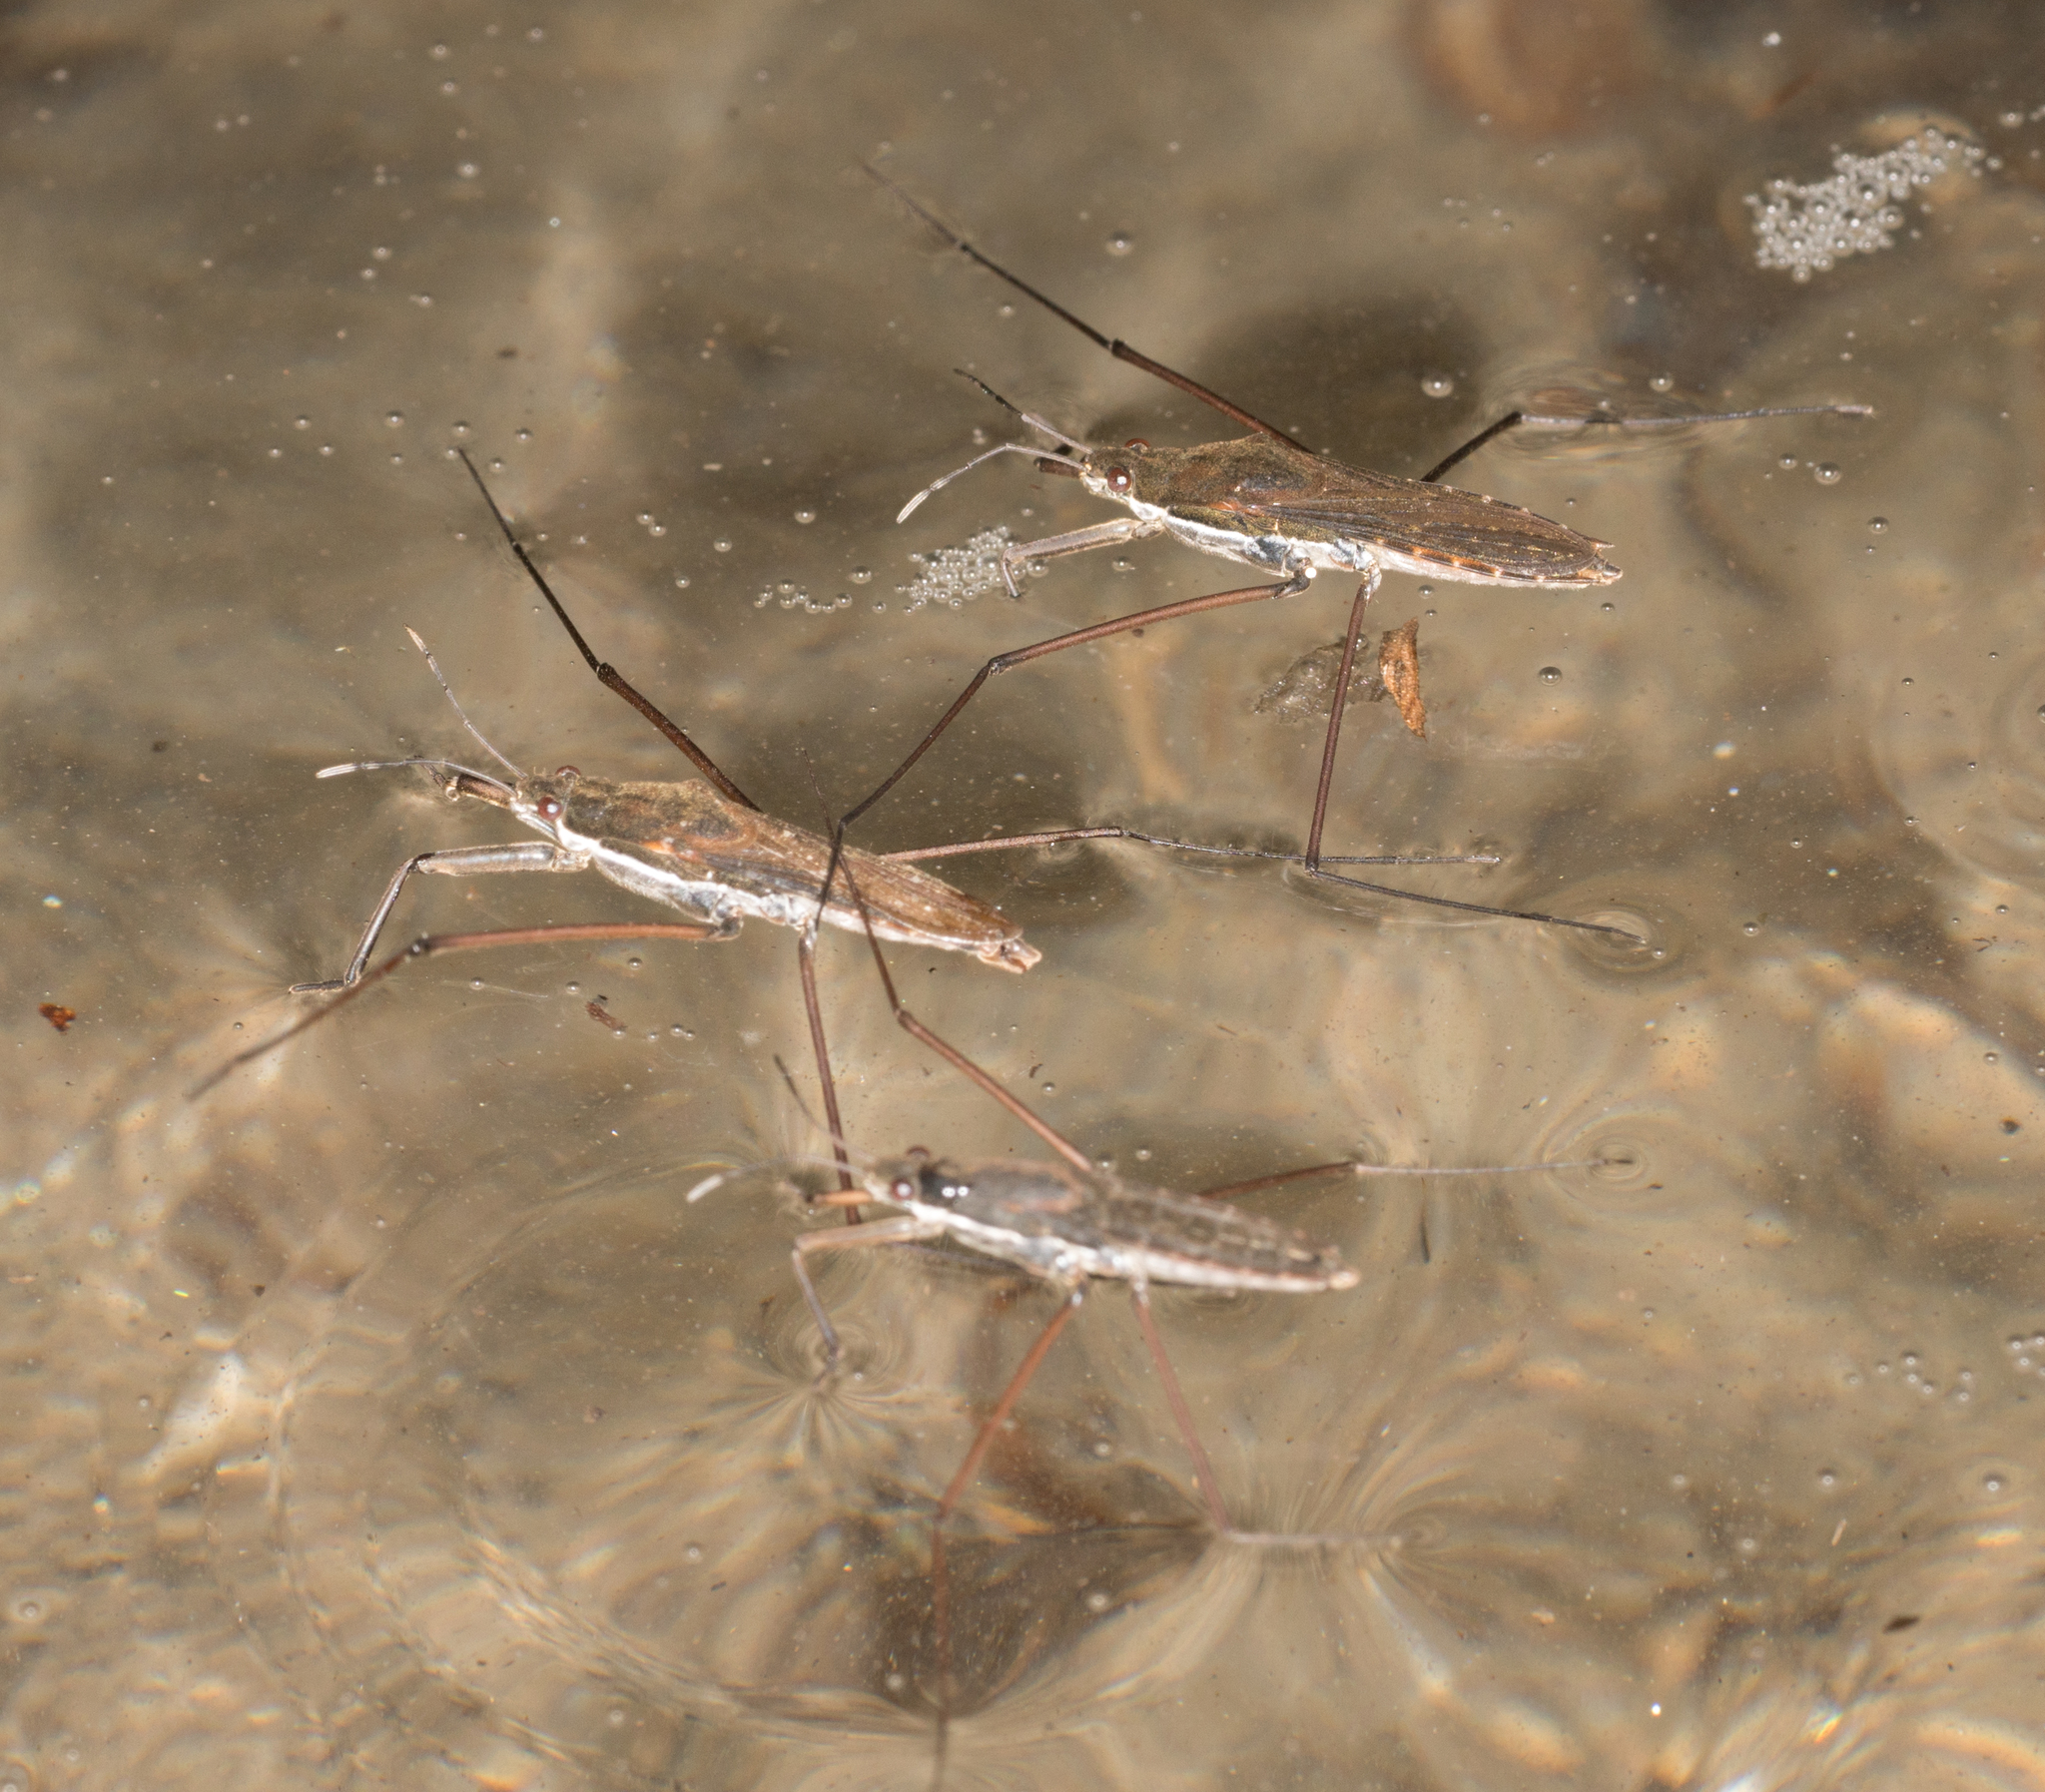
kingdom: Animalia
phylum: Arthropoda
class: Insecta
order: Hemiptera
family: Gerridae
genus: Aquarius
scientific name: Aquarius remigis
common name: Common water strider
